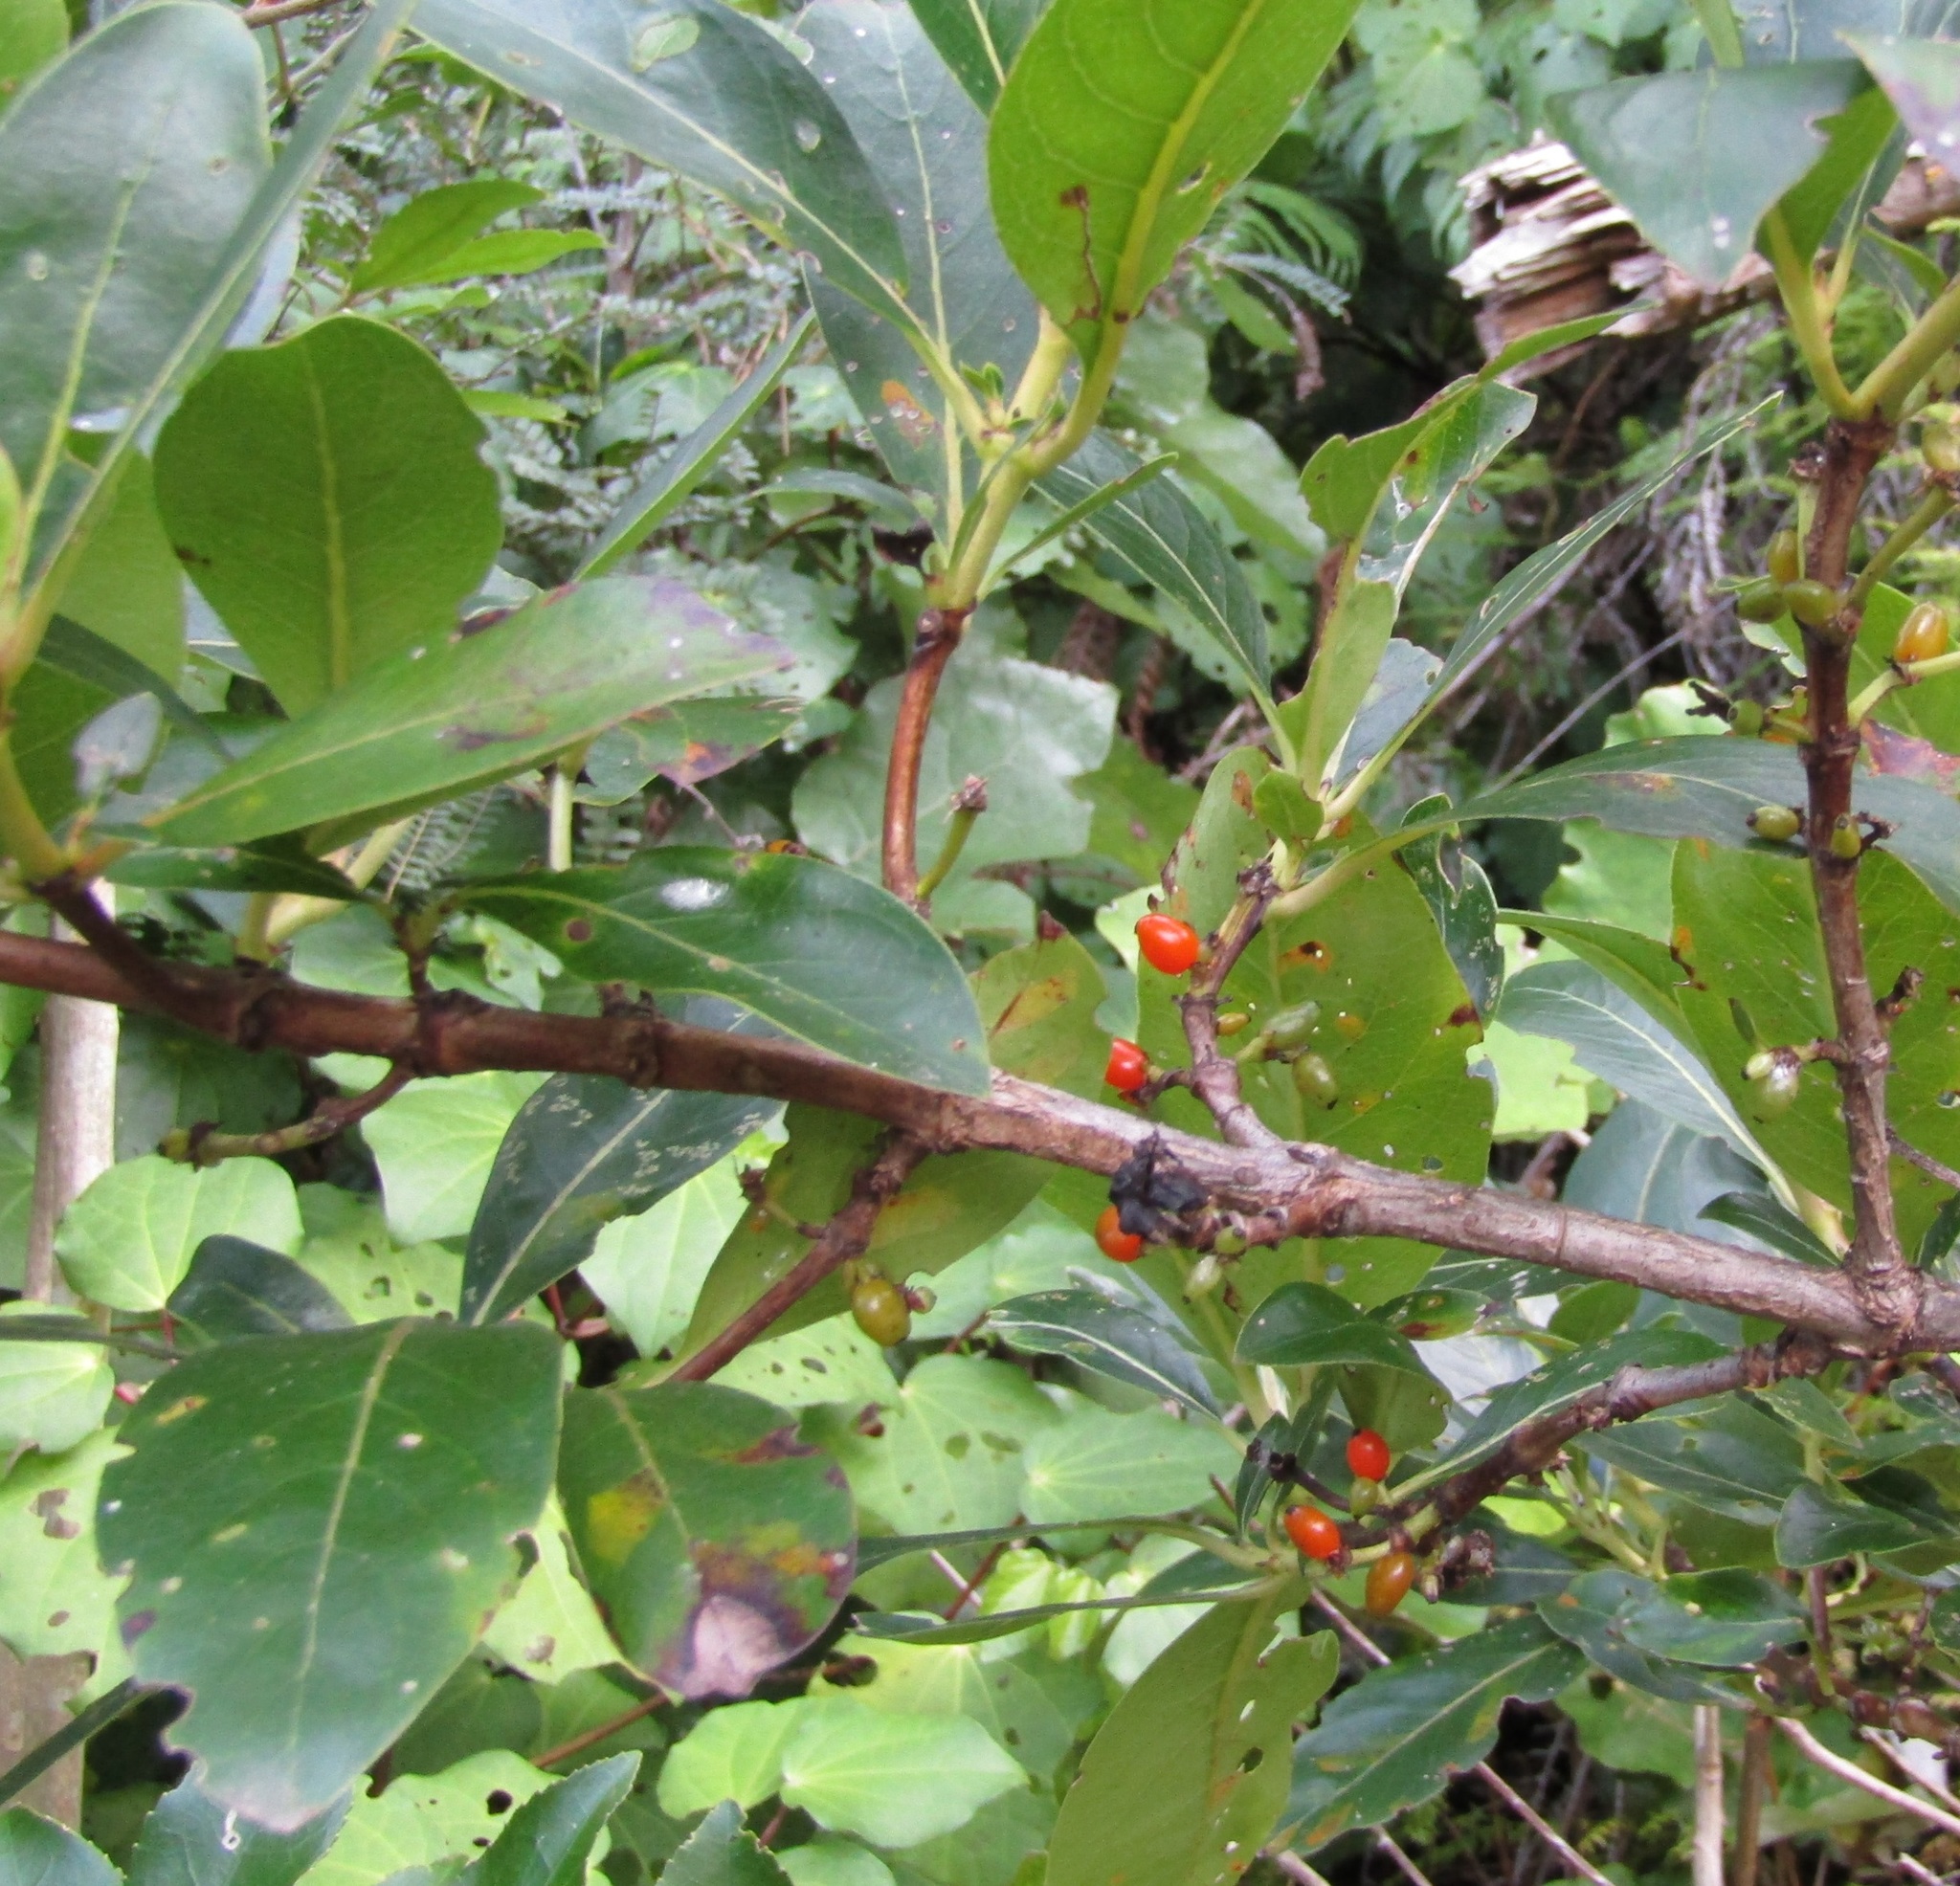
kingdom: Plantae
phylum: Tracheophyta
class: Magnoliopsida
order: Gentianales
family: Rubiaceae
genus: Coprosma
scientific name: Coprosma robusta
